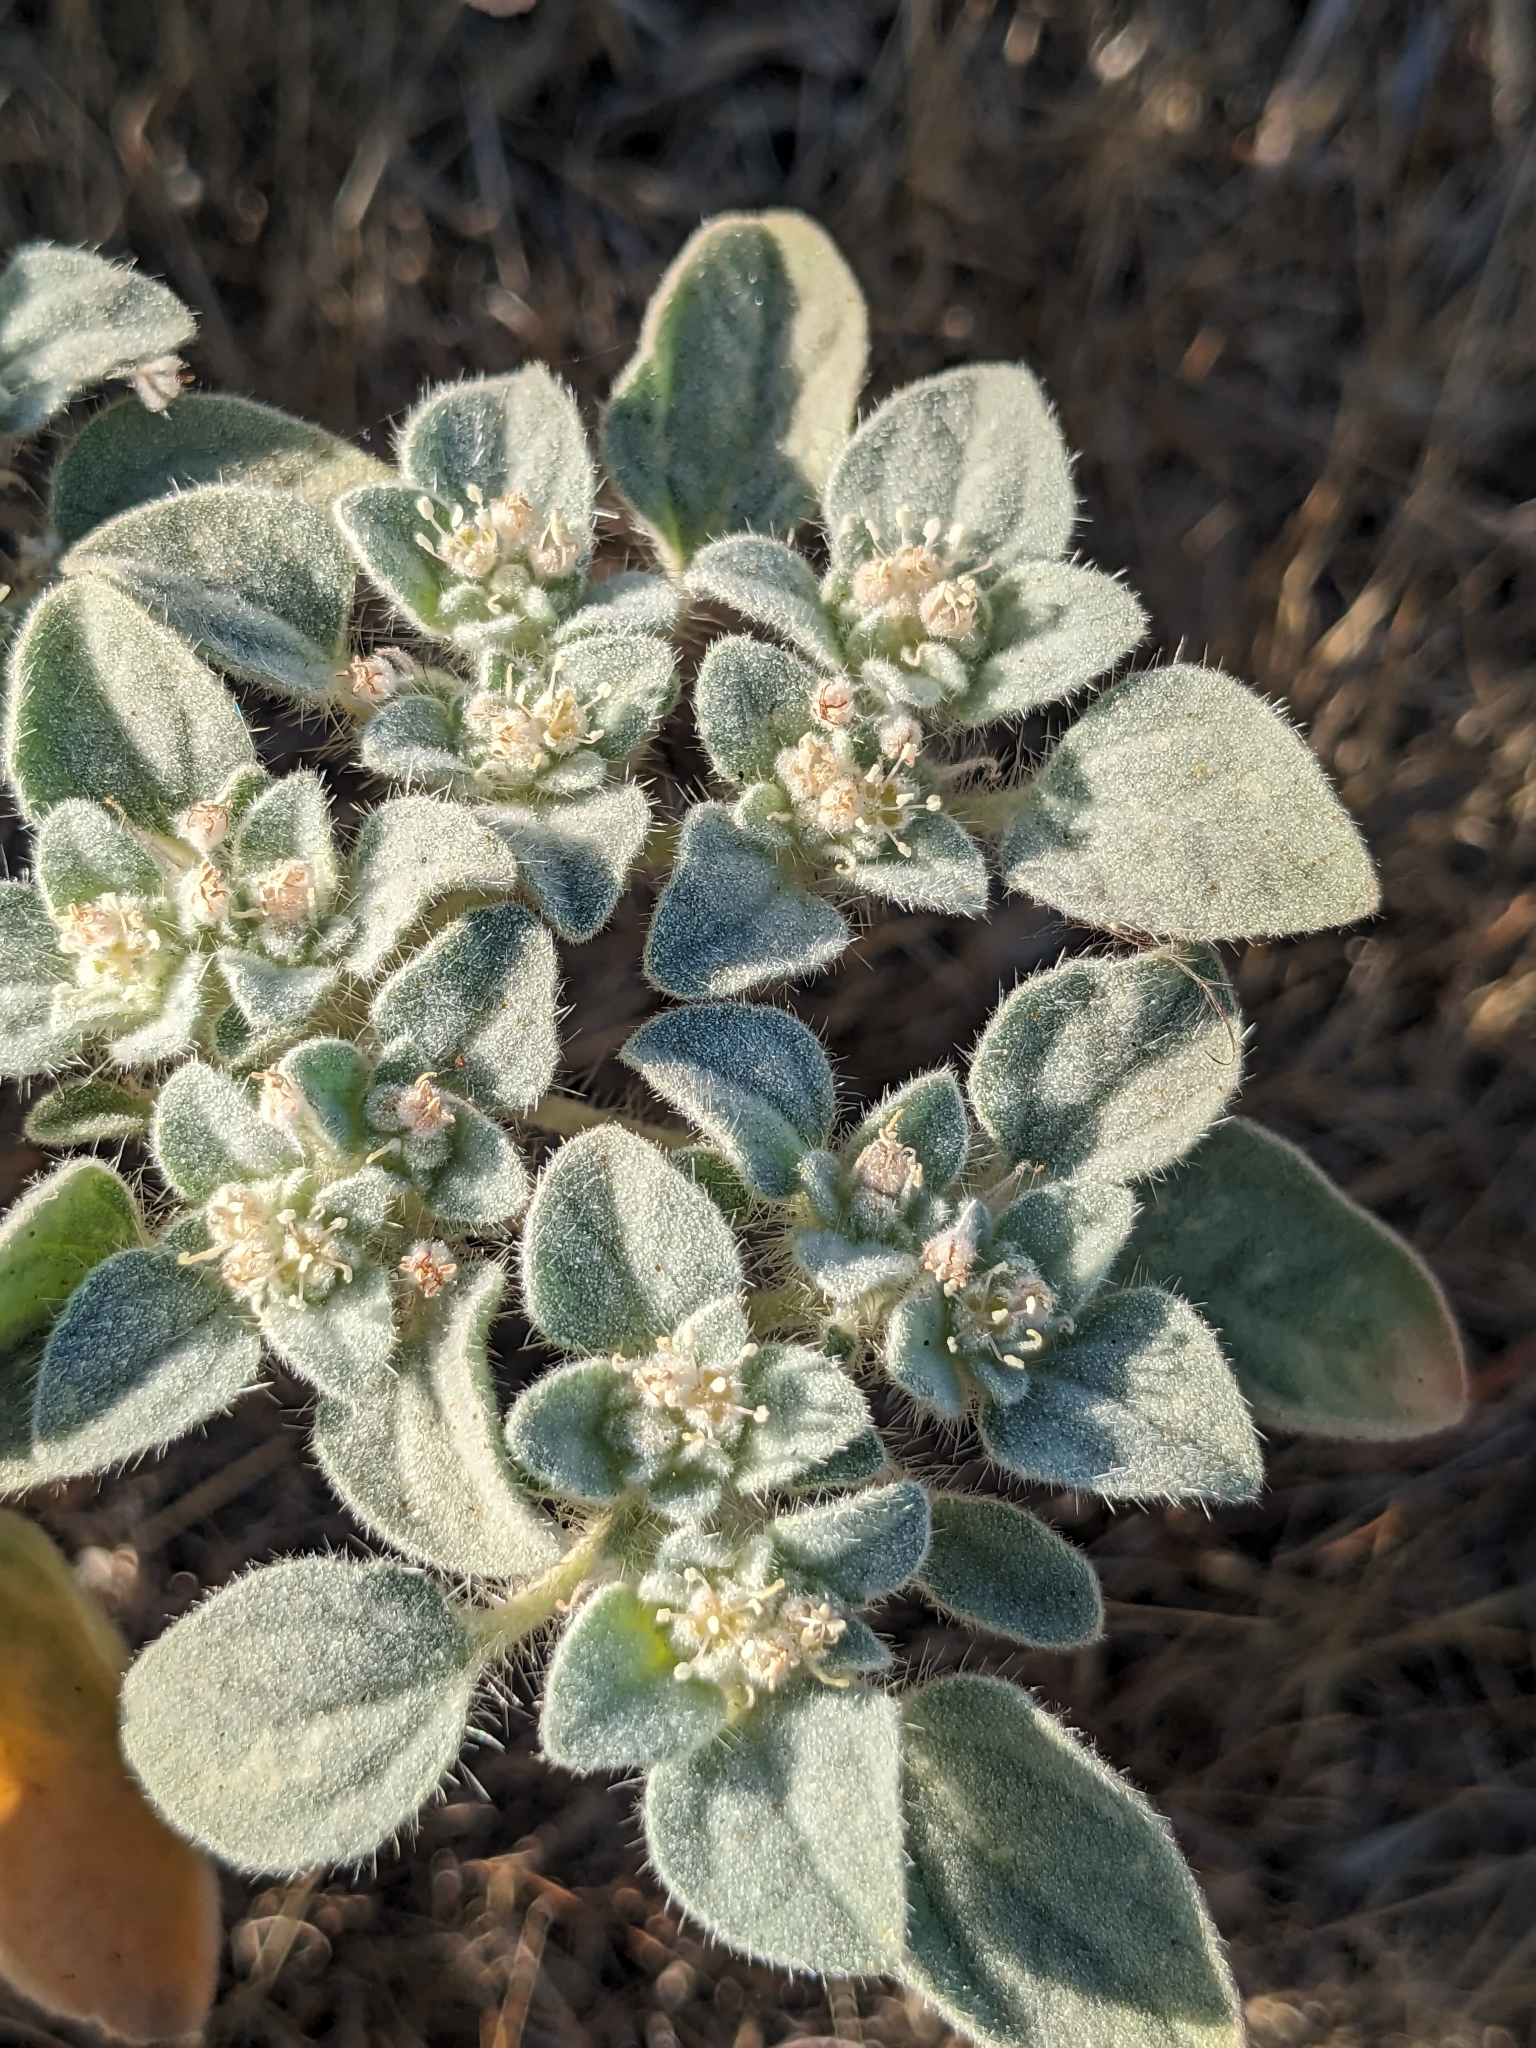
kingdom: Plantae
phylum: Tracheophyta
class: Magnoliopsida
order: Malpighiales
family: Euphorbiaceae
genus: Croton
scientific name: Croton setiger
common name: Dove weed
